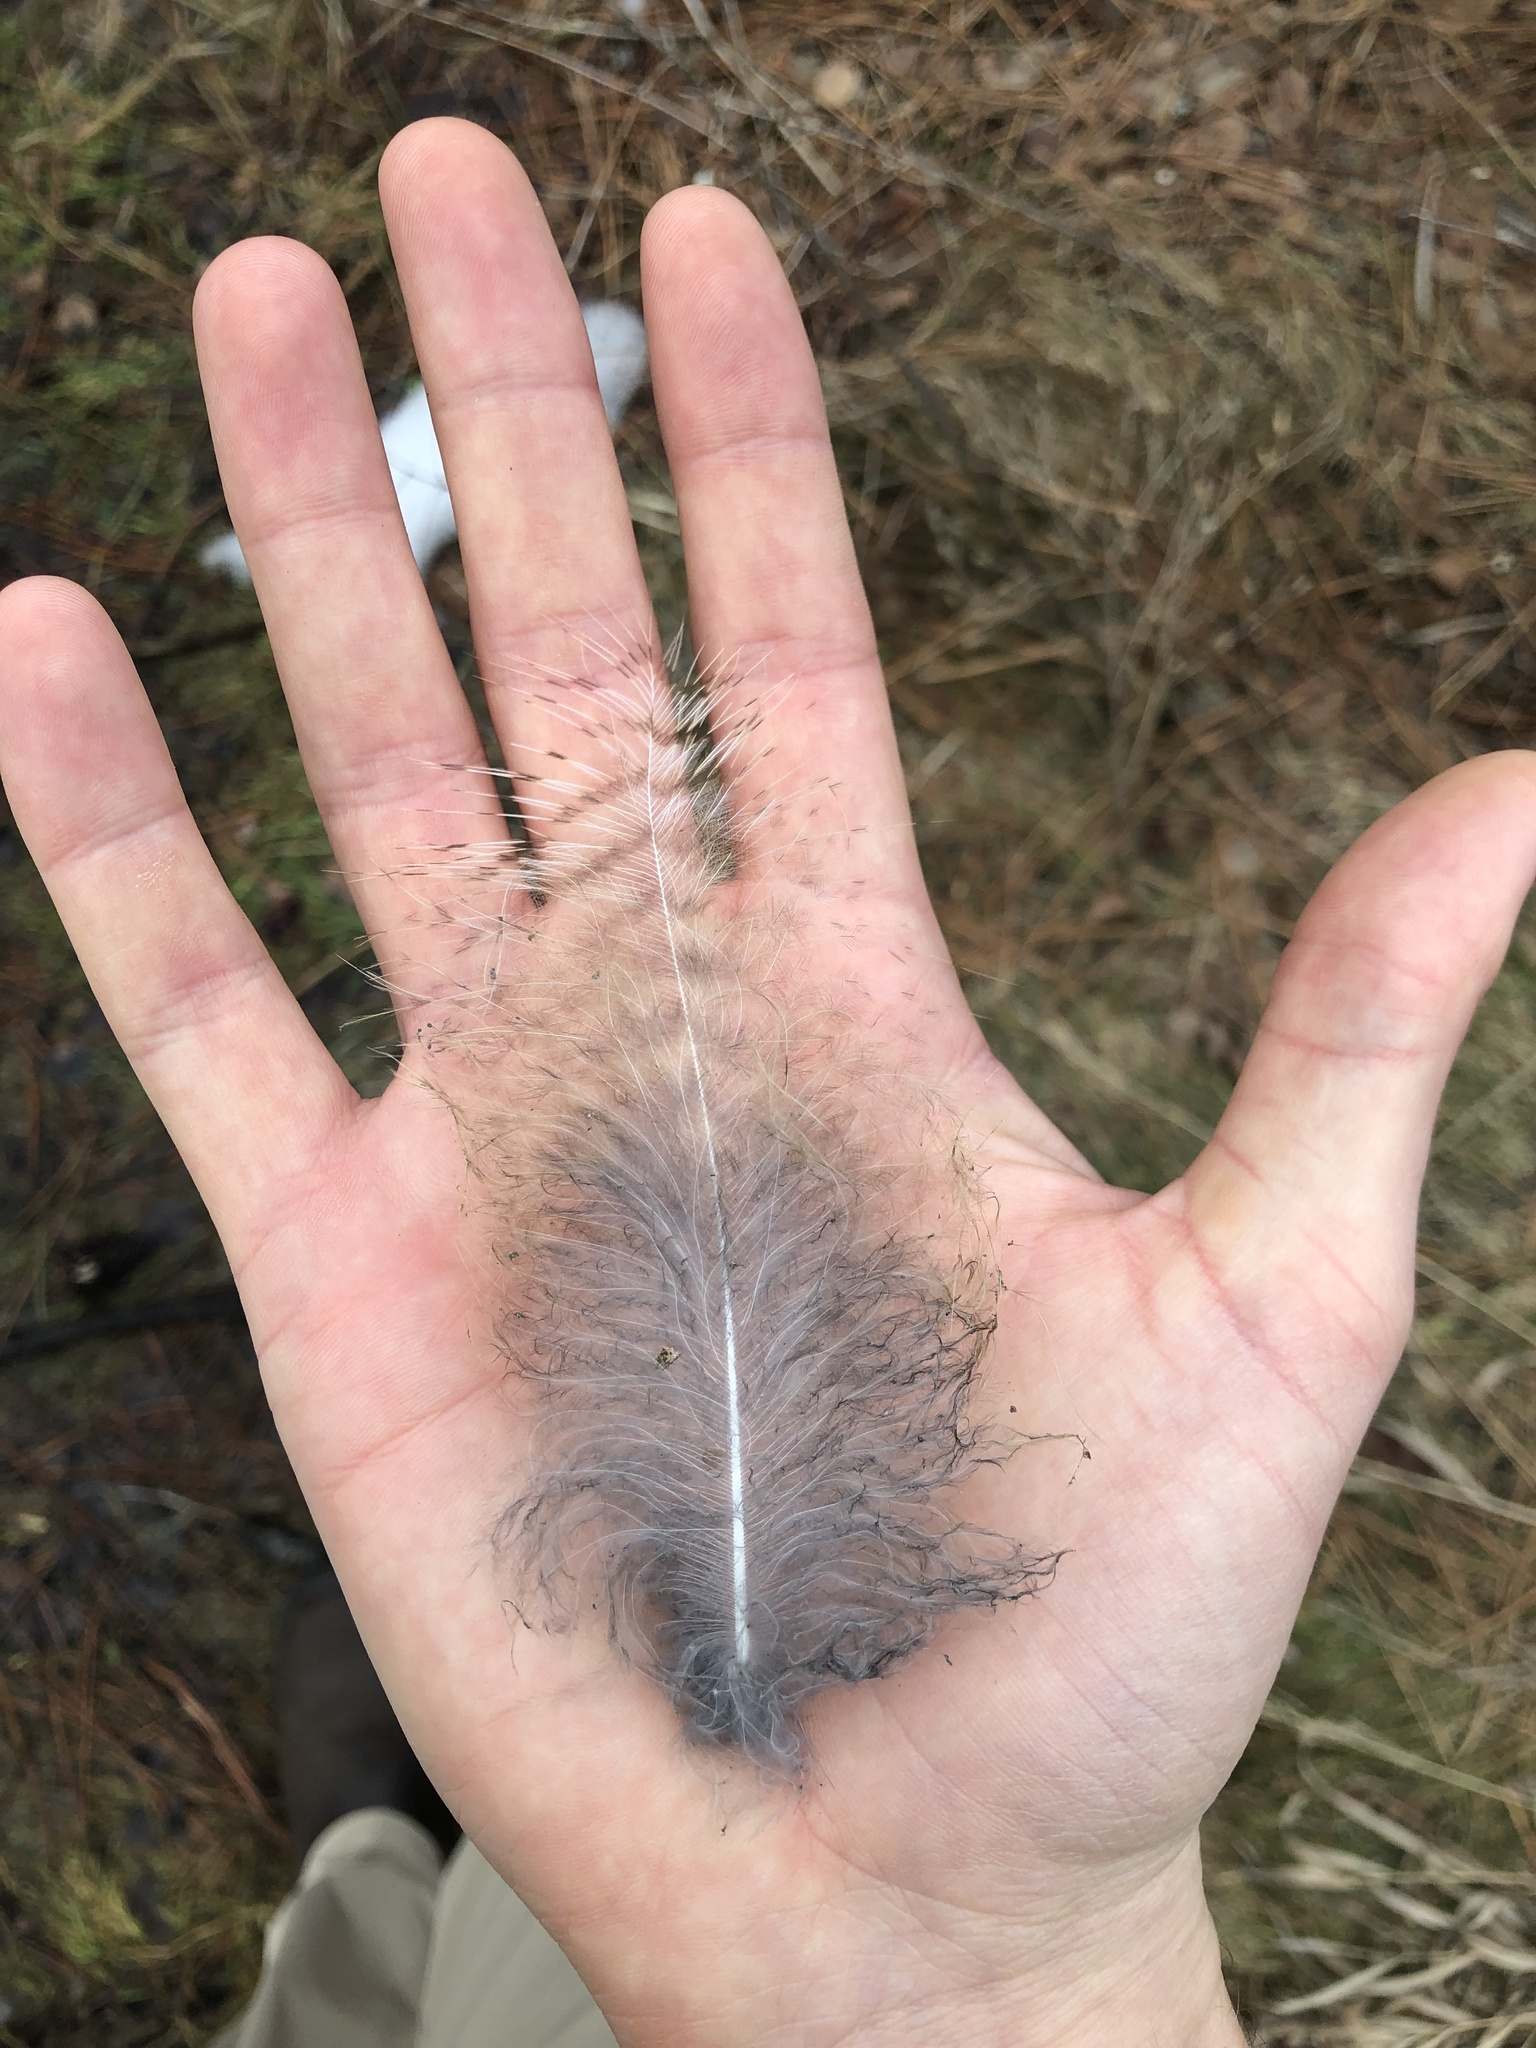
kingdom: Animalia
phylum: Chordata
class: Aves
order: Strigiformes
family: Strigidae
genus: Bubo
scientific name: Bubo virginianus
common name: Great horned owl
